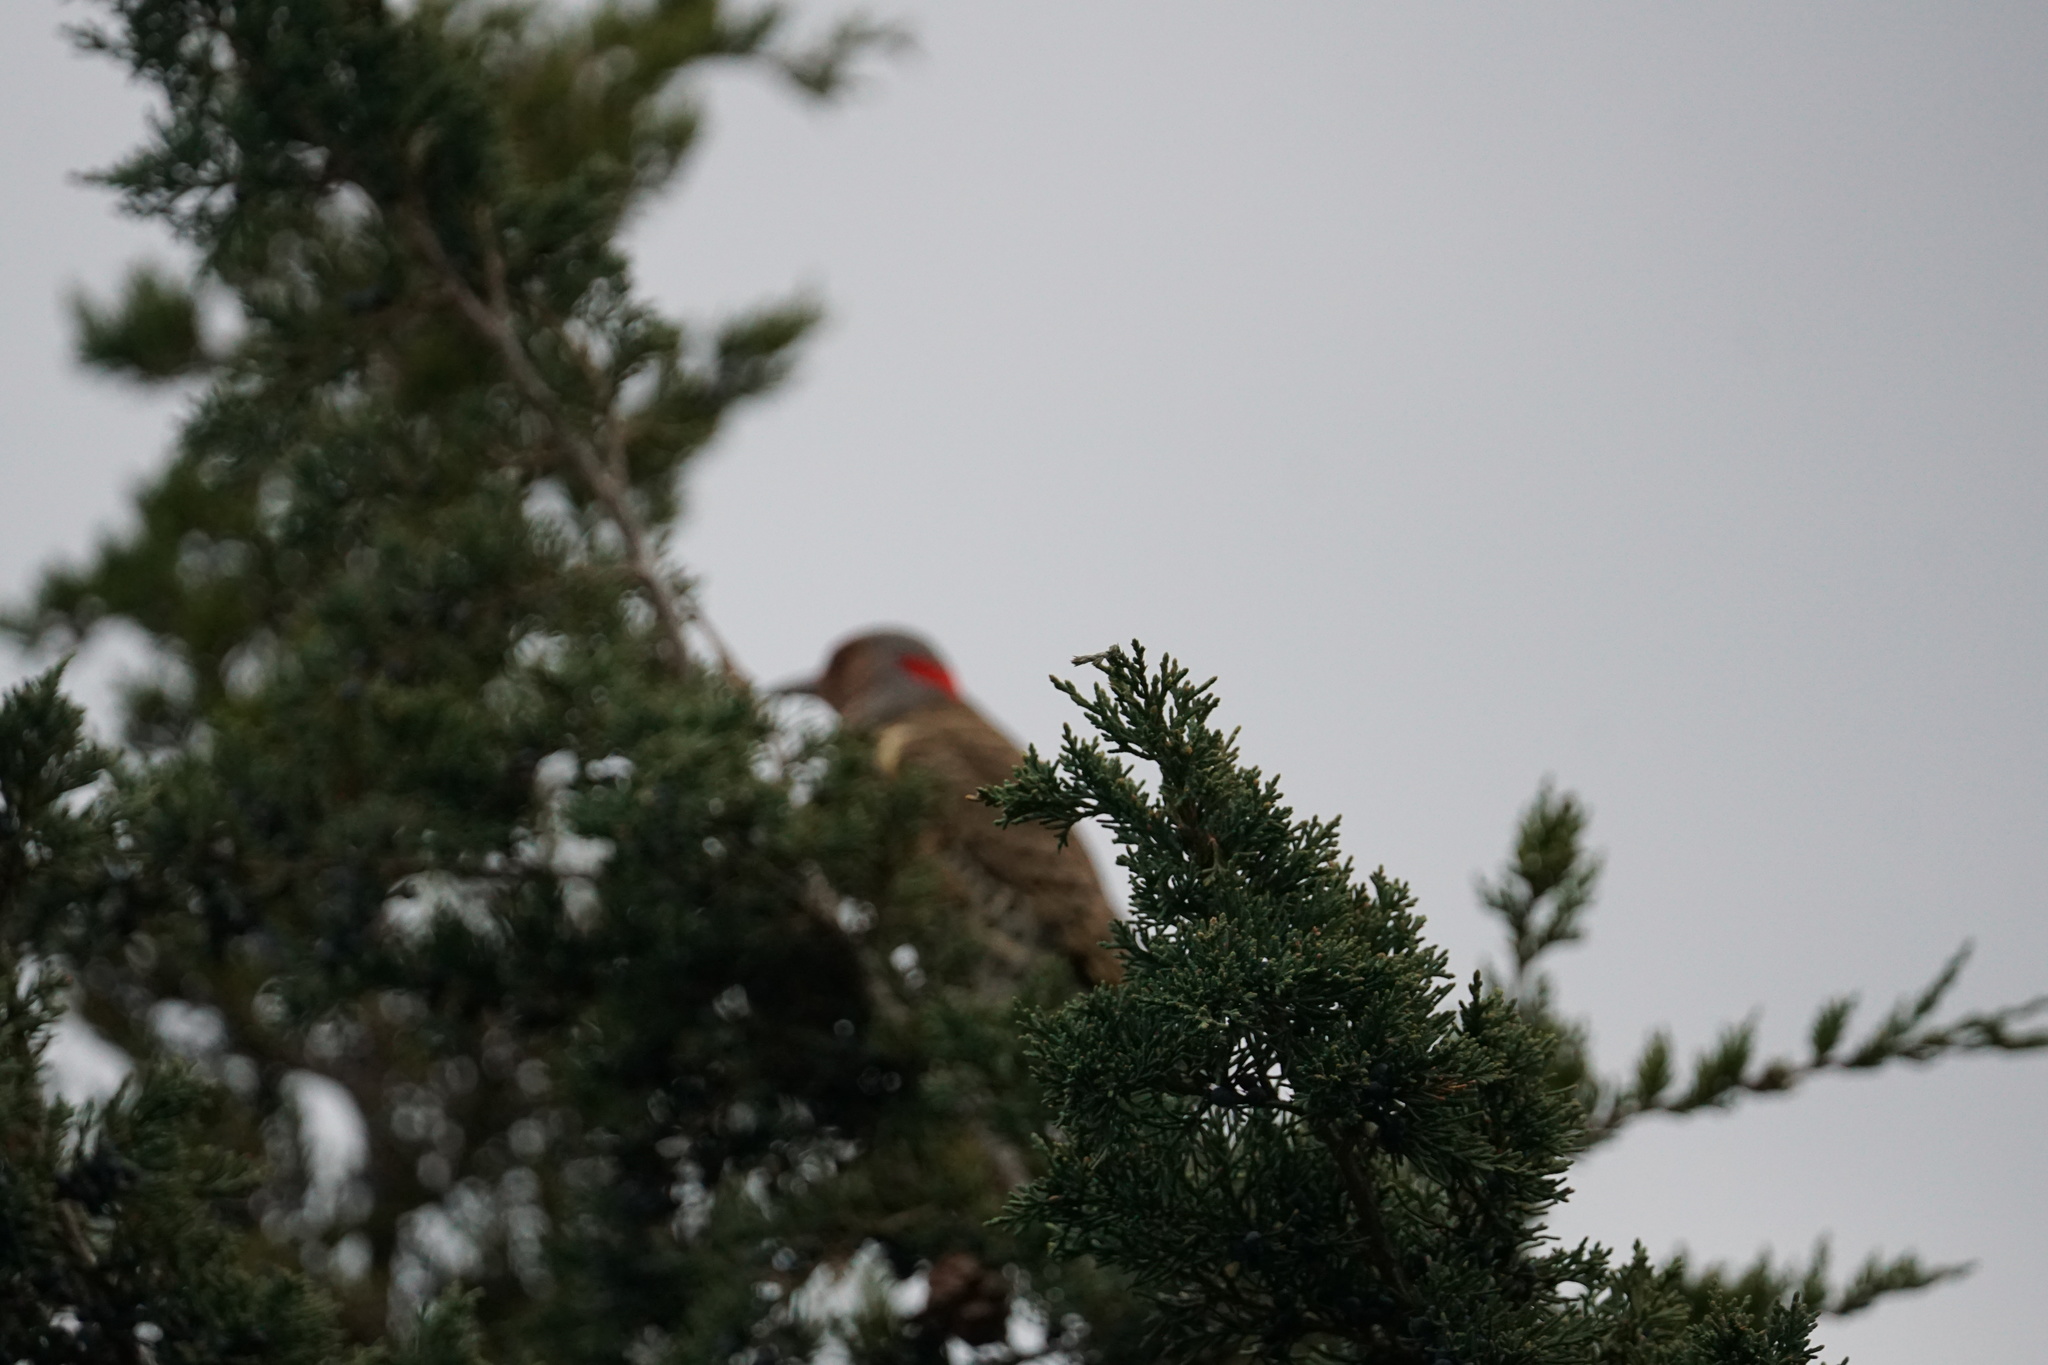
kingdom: Animalia
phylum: Chordata
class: Aves
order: Piciformes
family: Picidae
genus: Colaptes
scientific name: Colaptes auratus
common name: Northern flicker
